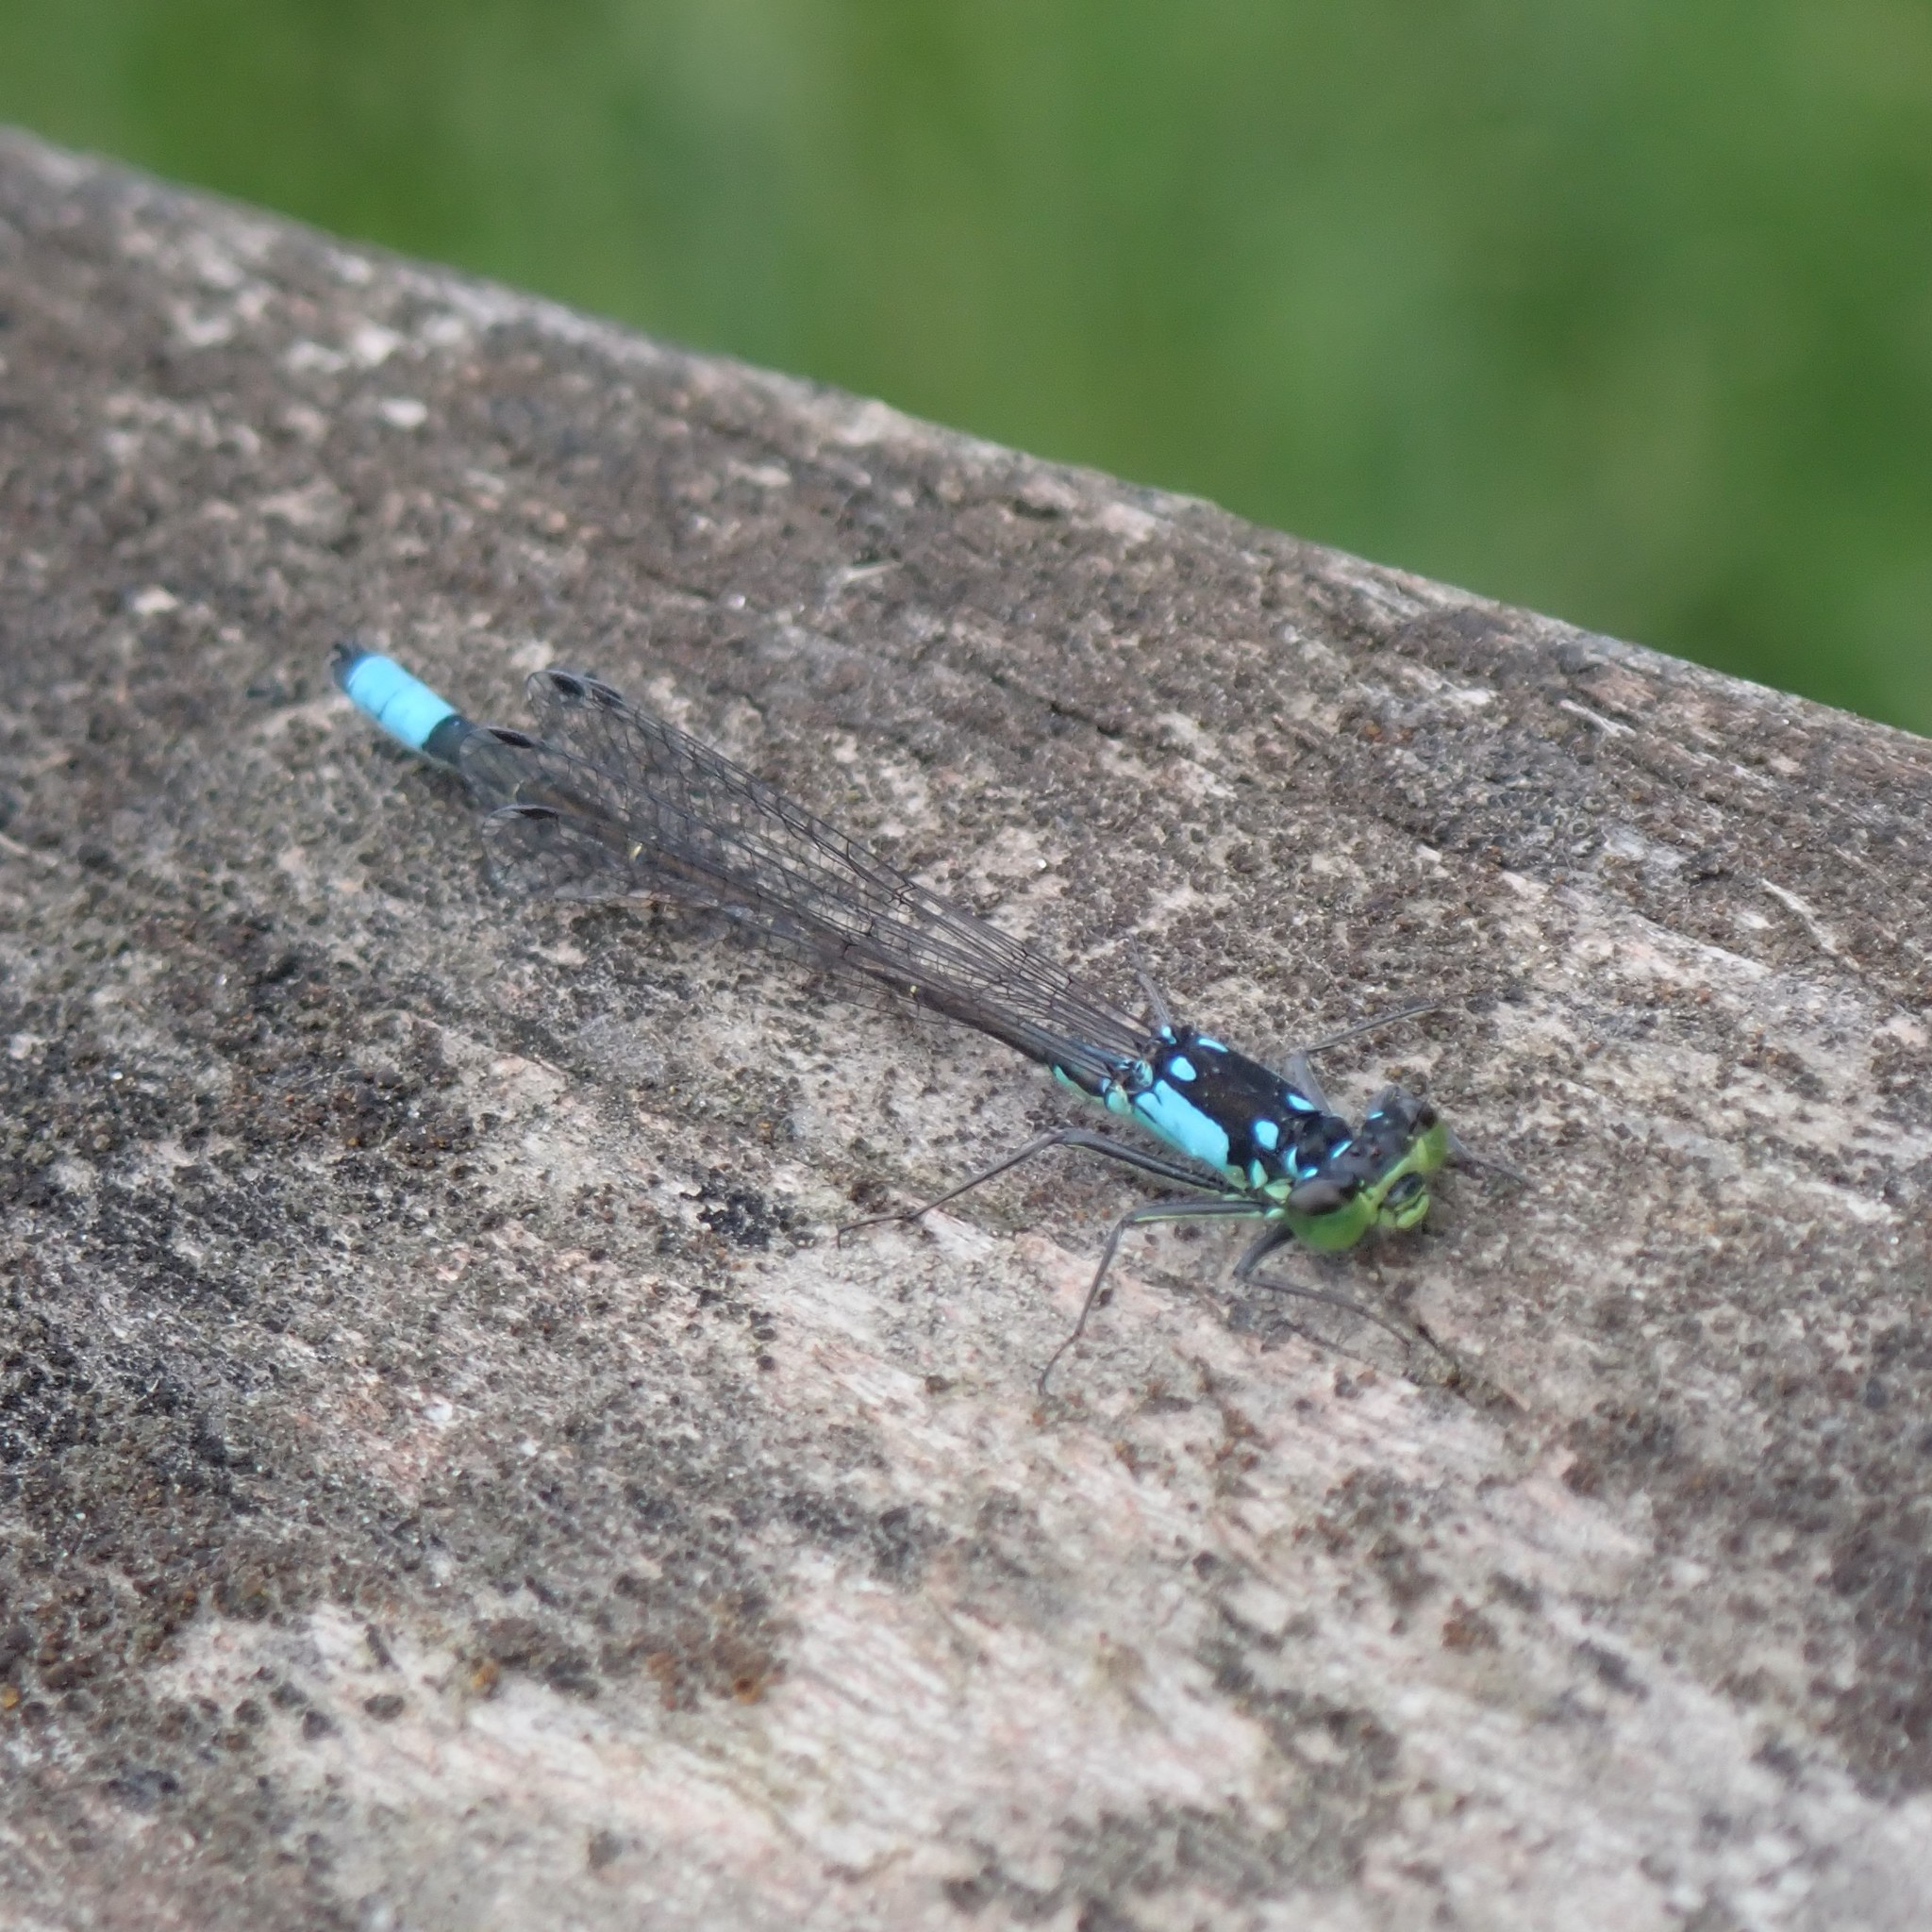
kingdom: Animalia
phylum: Arthropoda
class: Insecta
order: Odonata
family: Coenagrionidae
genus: Ischnura
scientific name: Ischnura cervula
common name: Pacific forktail
